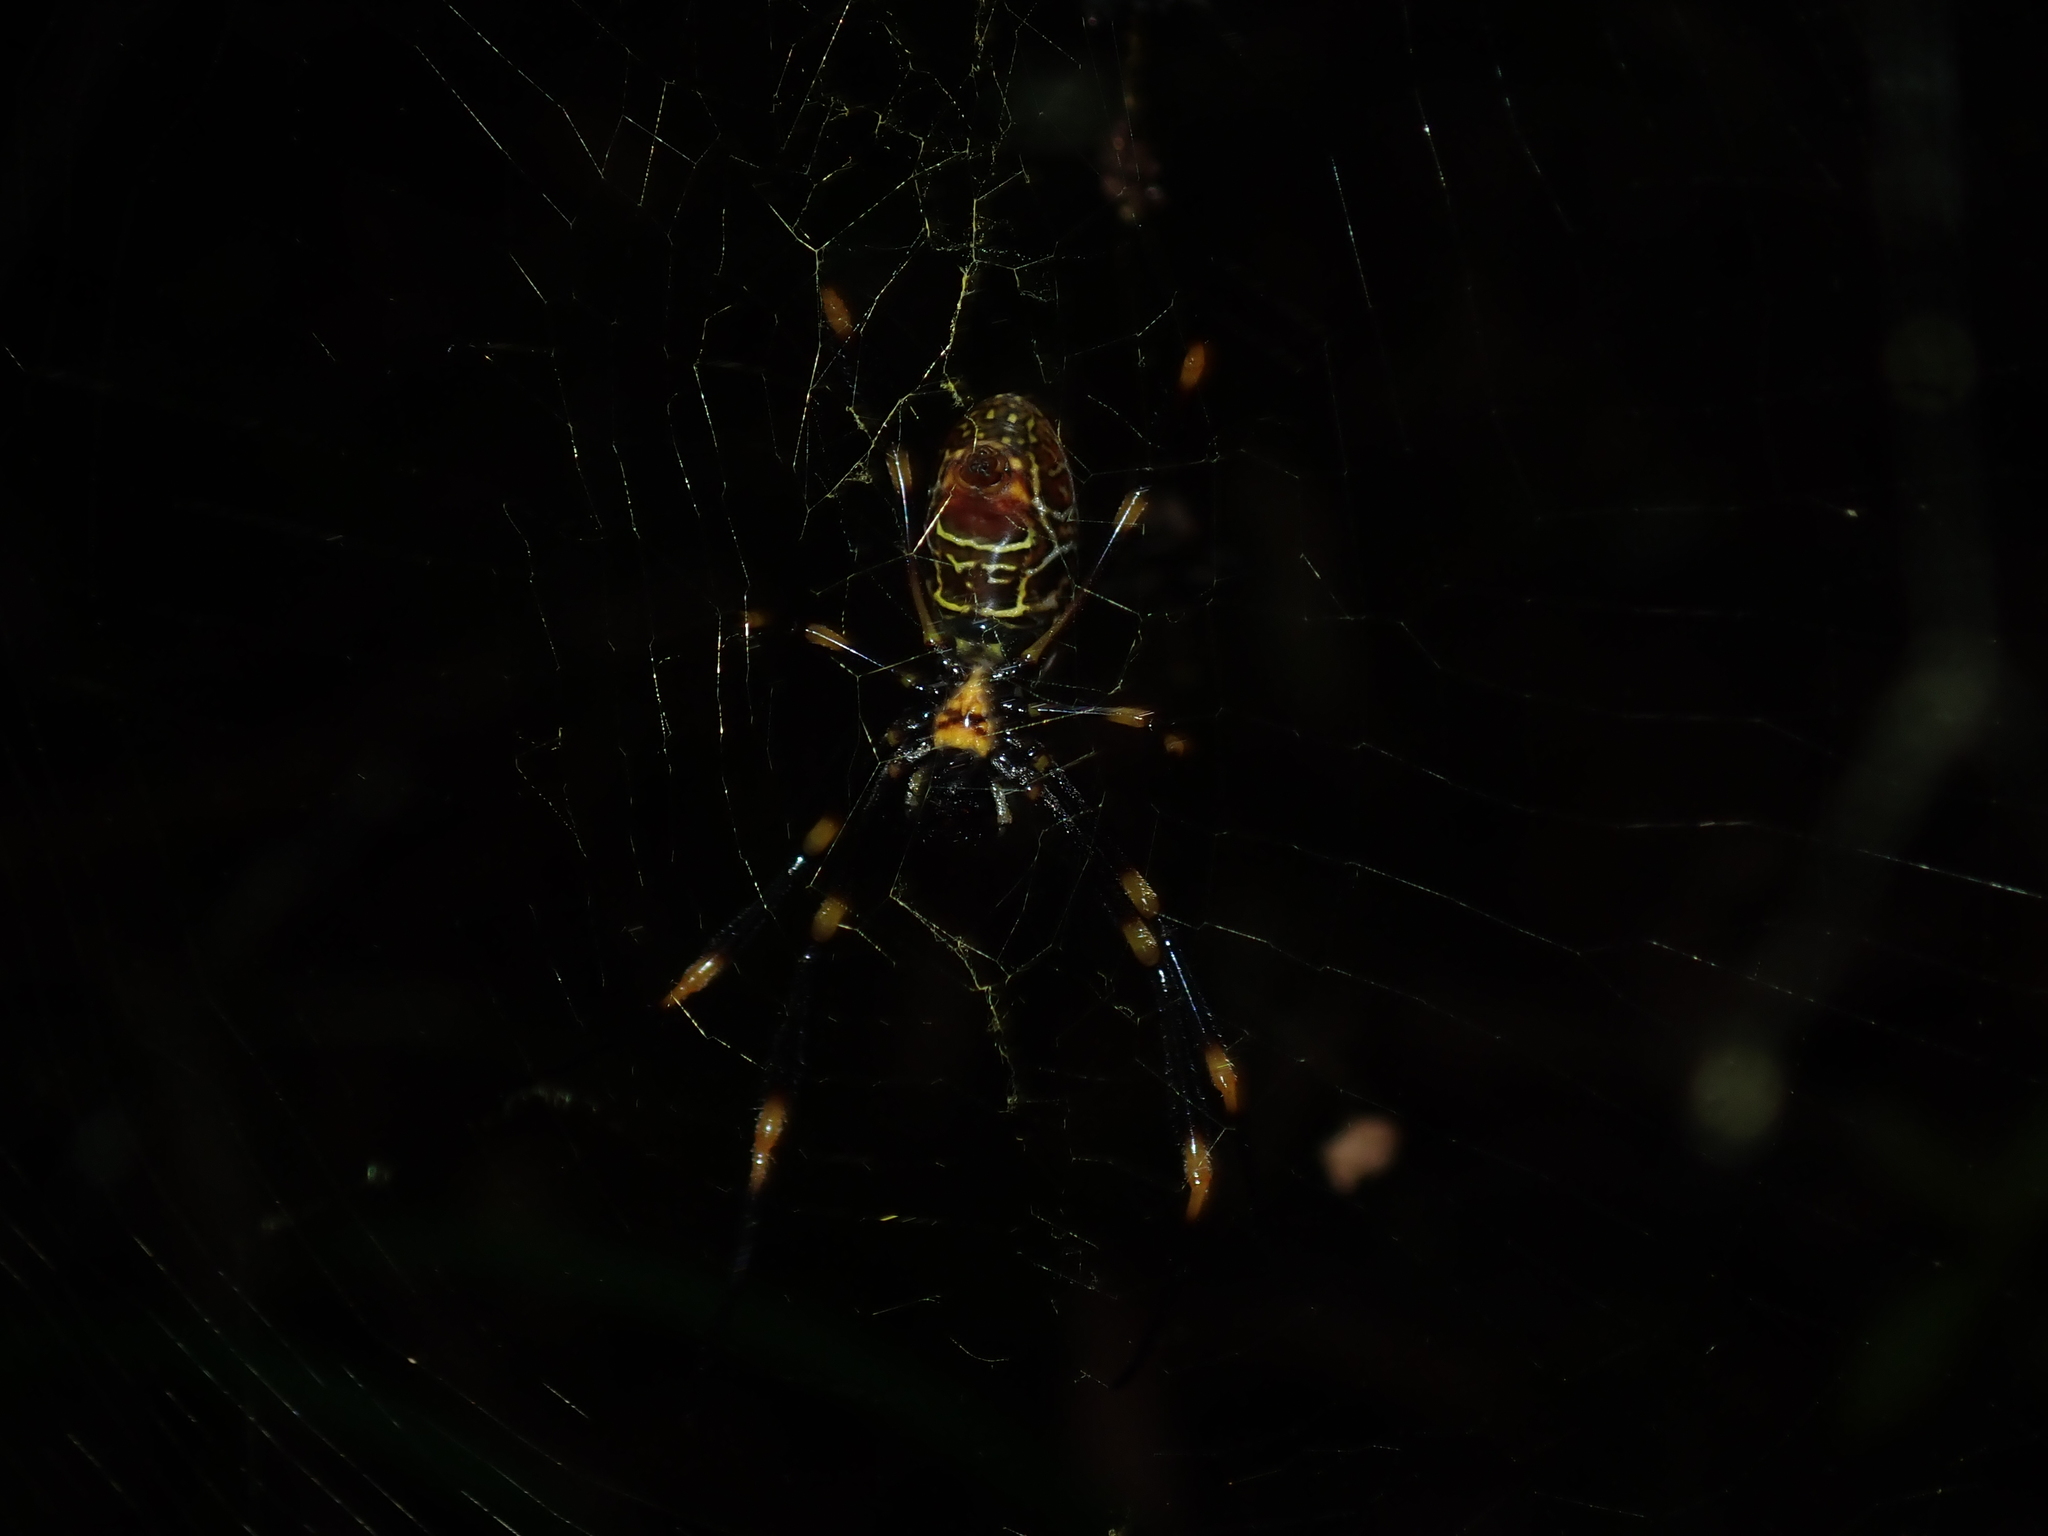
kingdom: Animalia
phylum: Arthropoda
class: Arachnida
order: Araneae
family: Araneidae
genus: Trichonephila
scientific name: Trichonephila plumipes
